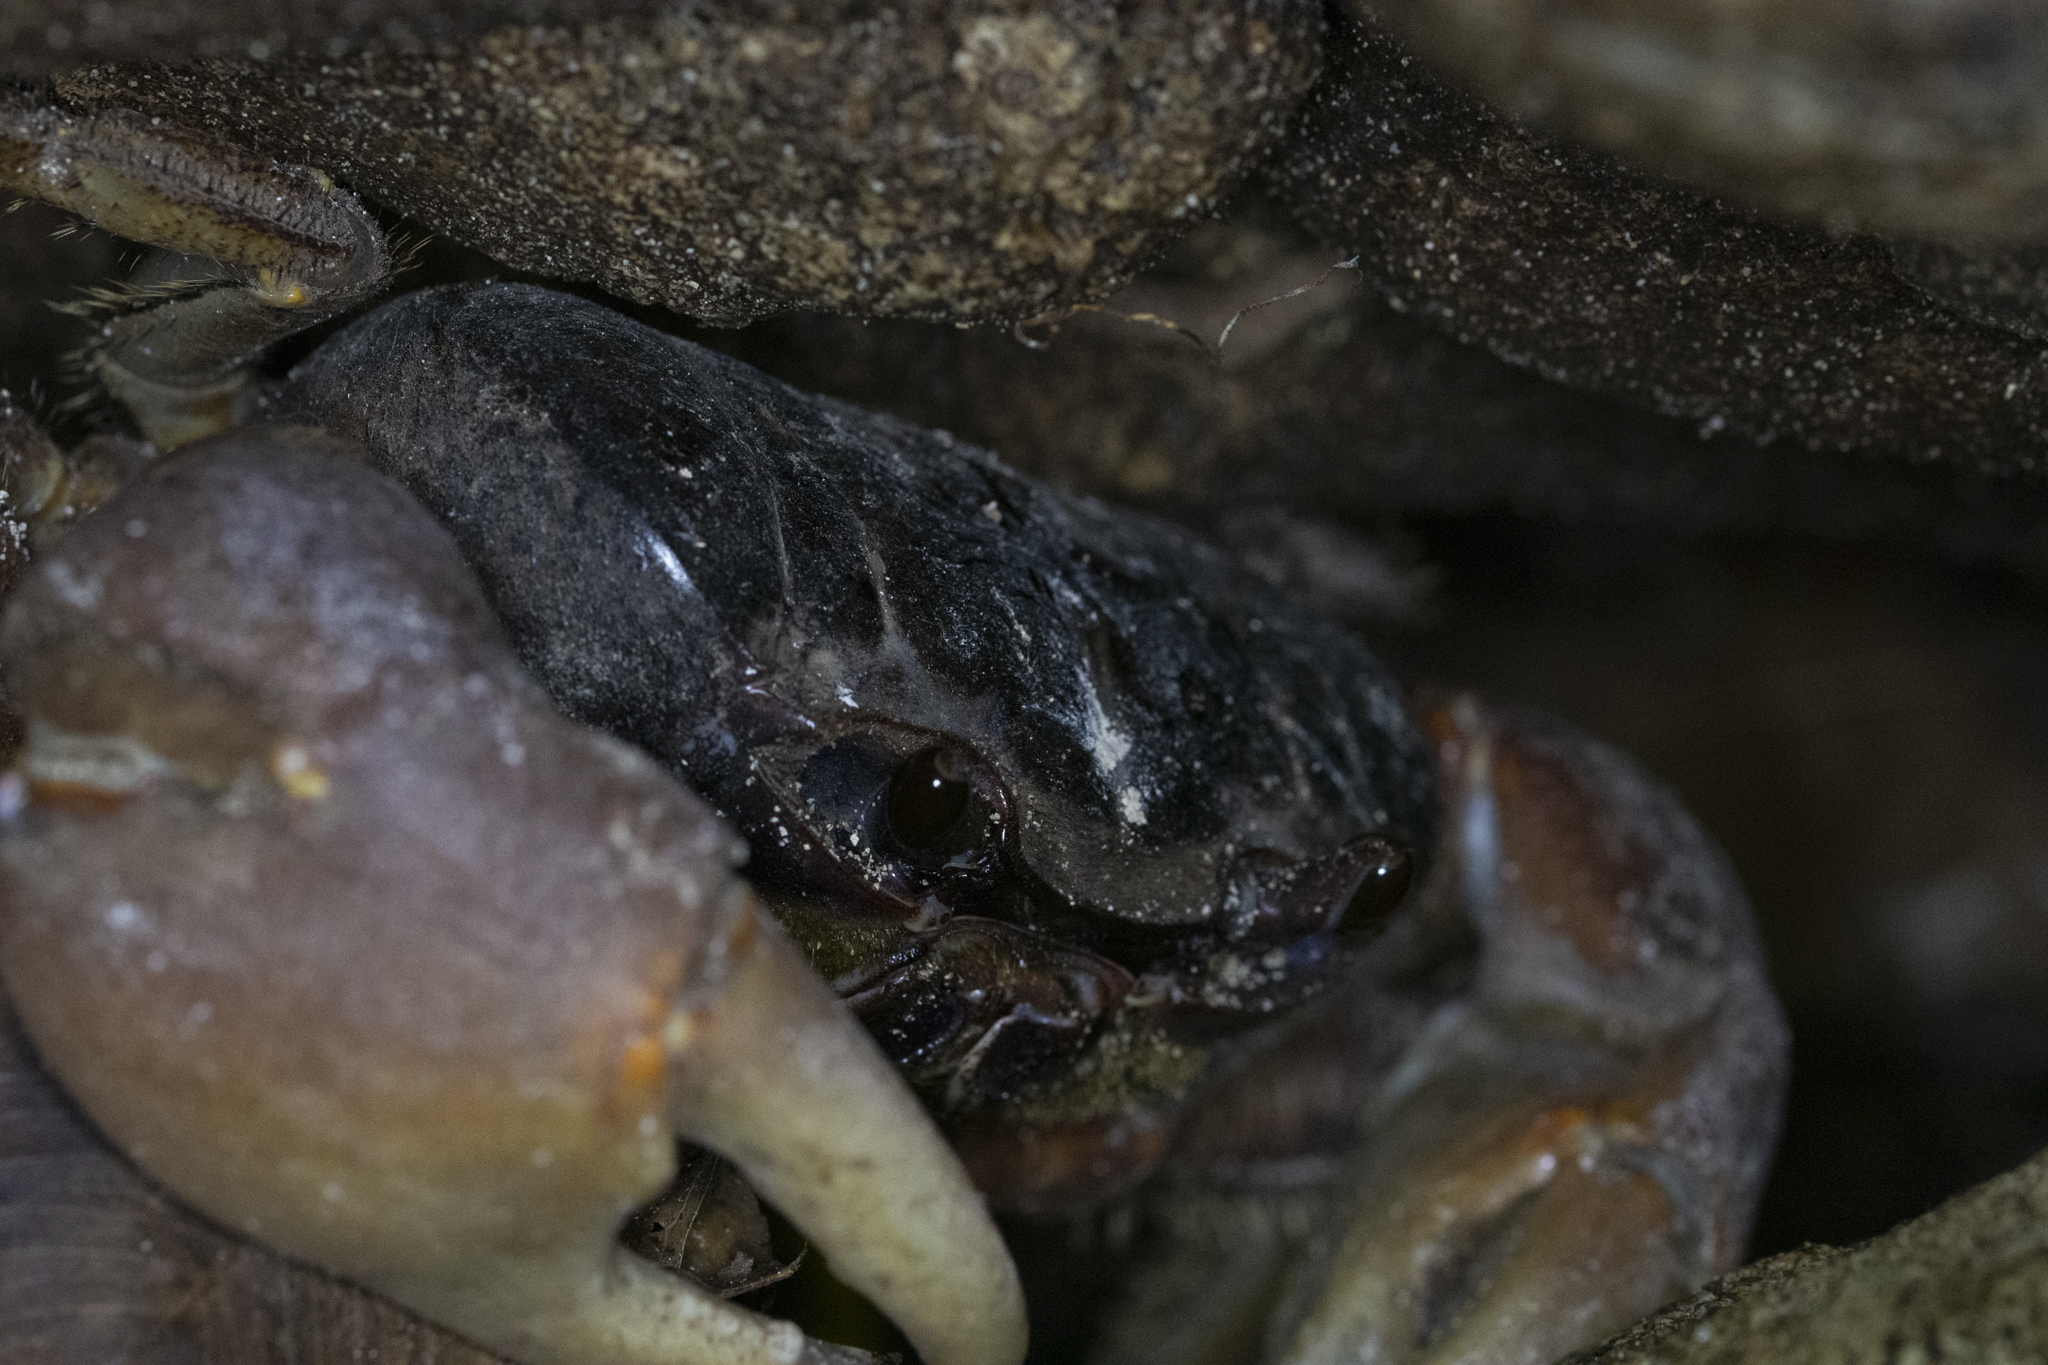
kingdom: Animalia
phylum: Arthropoda
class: Malacostraca
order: Decapoda
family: Gecarcinidae
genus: Tuerkayana
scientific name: Tuerkayana hirtipes
